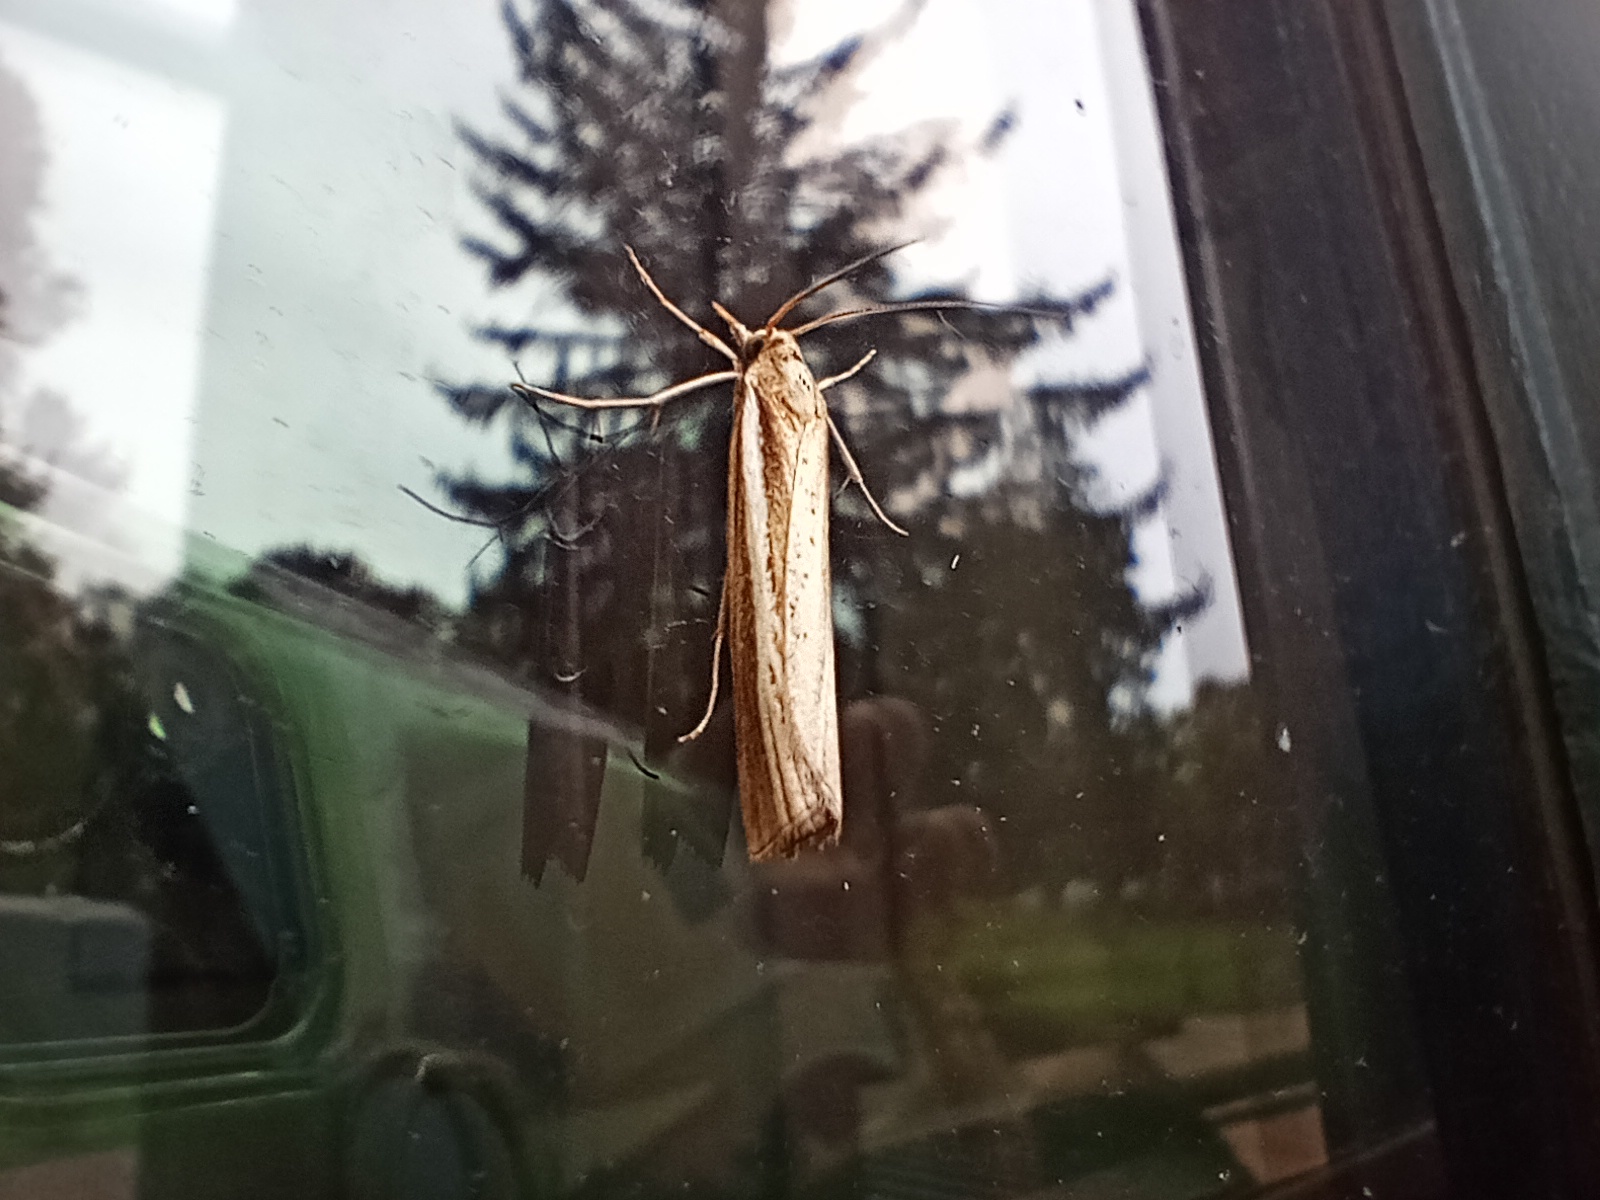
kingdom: Animalia
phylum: Arthropoda
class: Insecta
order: Lepidoptera
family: Crambidae
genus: Agriphila
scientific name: Agriphila tristellus
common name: Common grass-veneer
